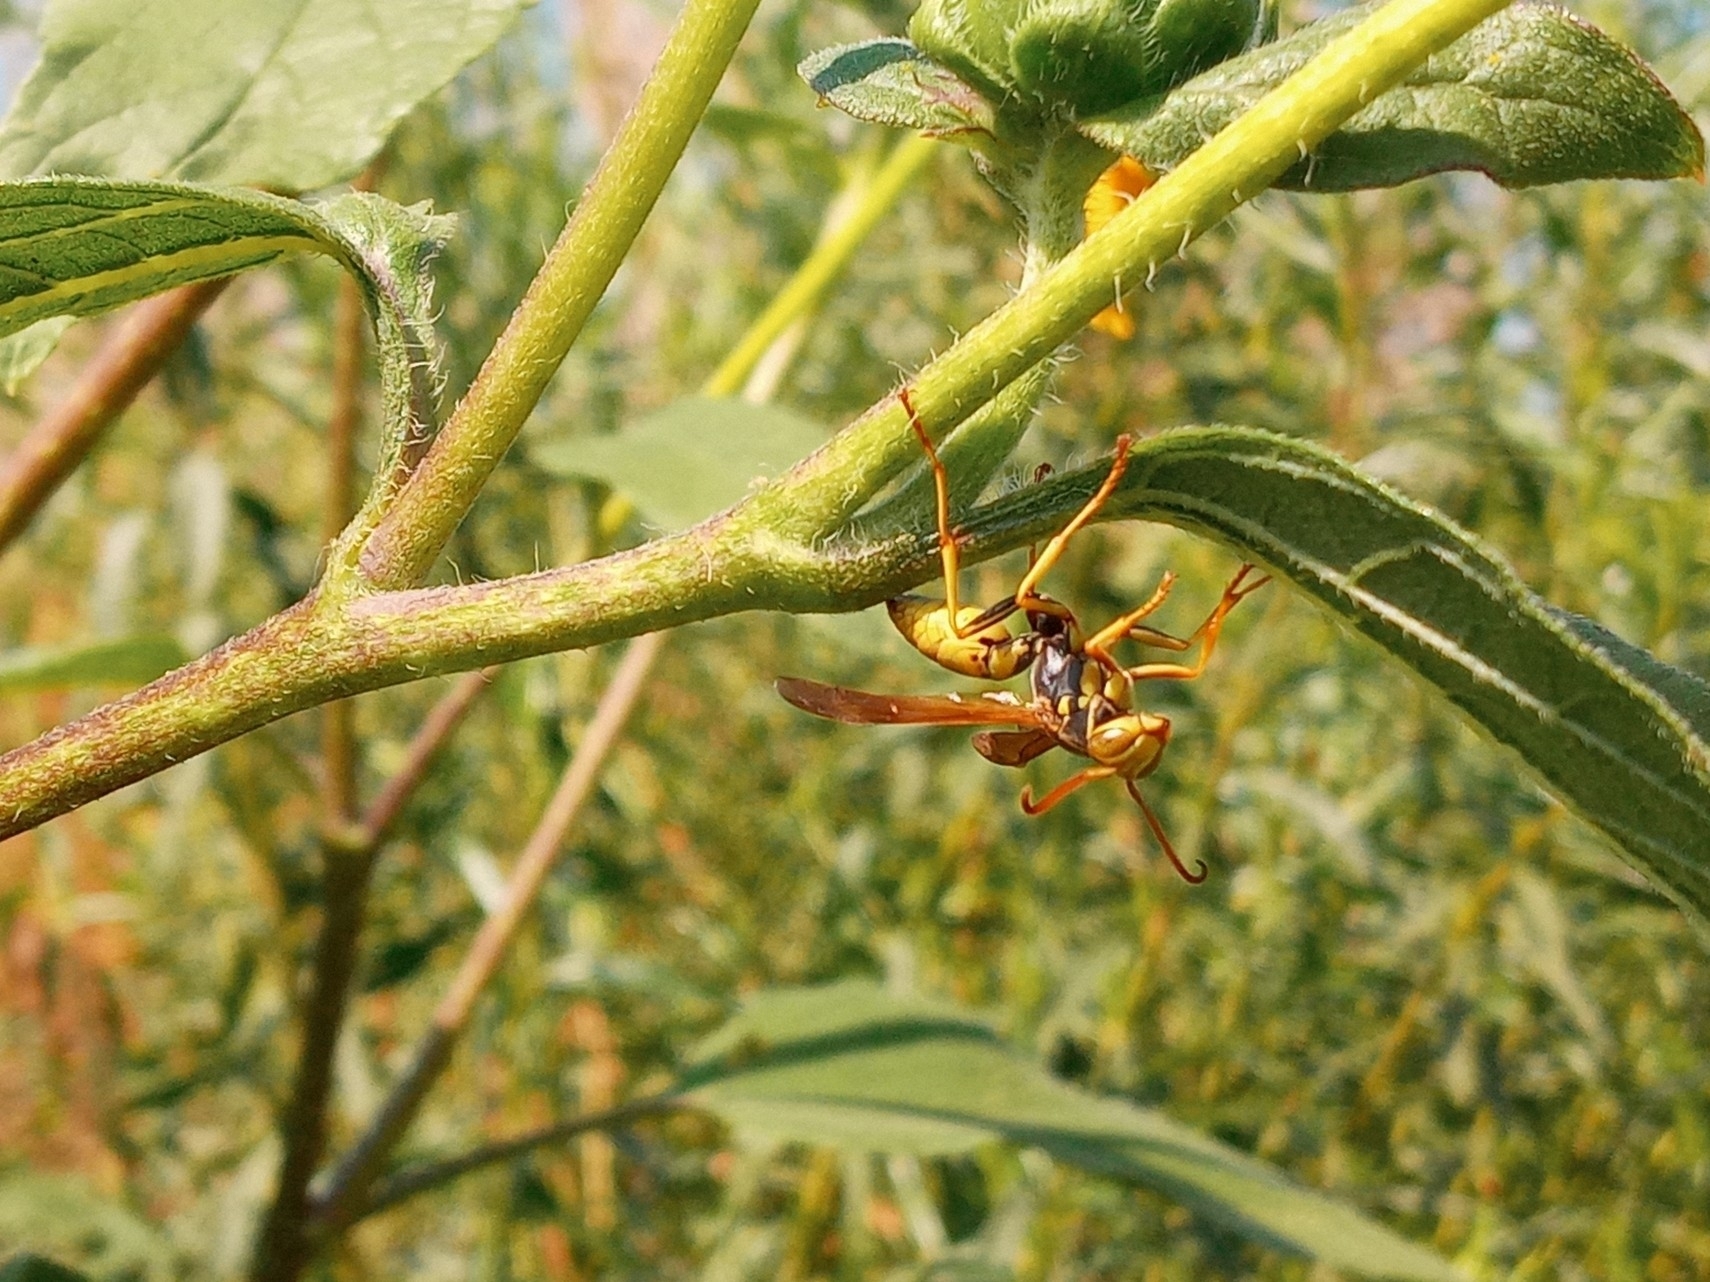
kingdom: Animalia
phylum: Arthropoda
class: Insecta
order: Hymenoptera
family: Eumenidae
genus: Polistes
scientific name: Polistes aurifer
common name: Paper wasp
